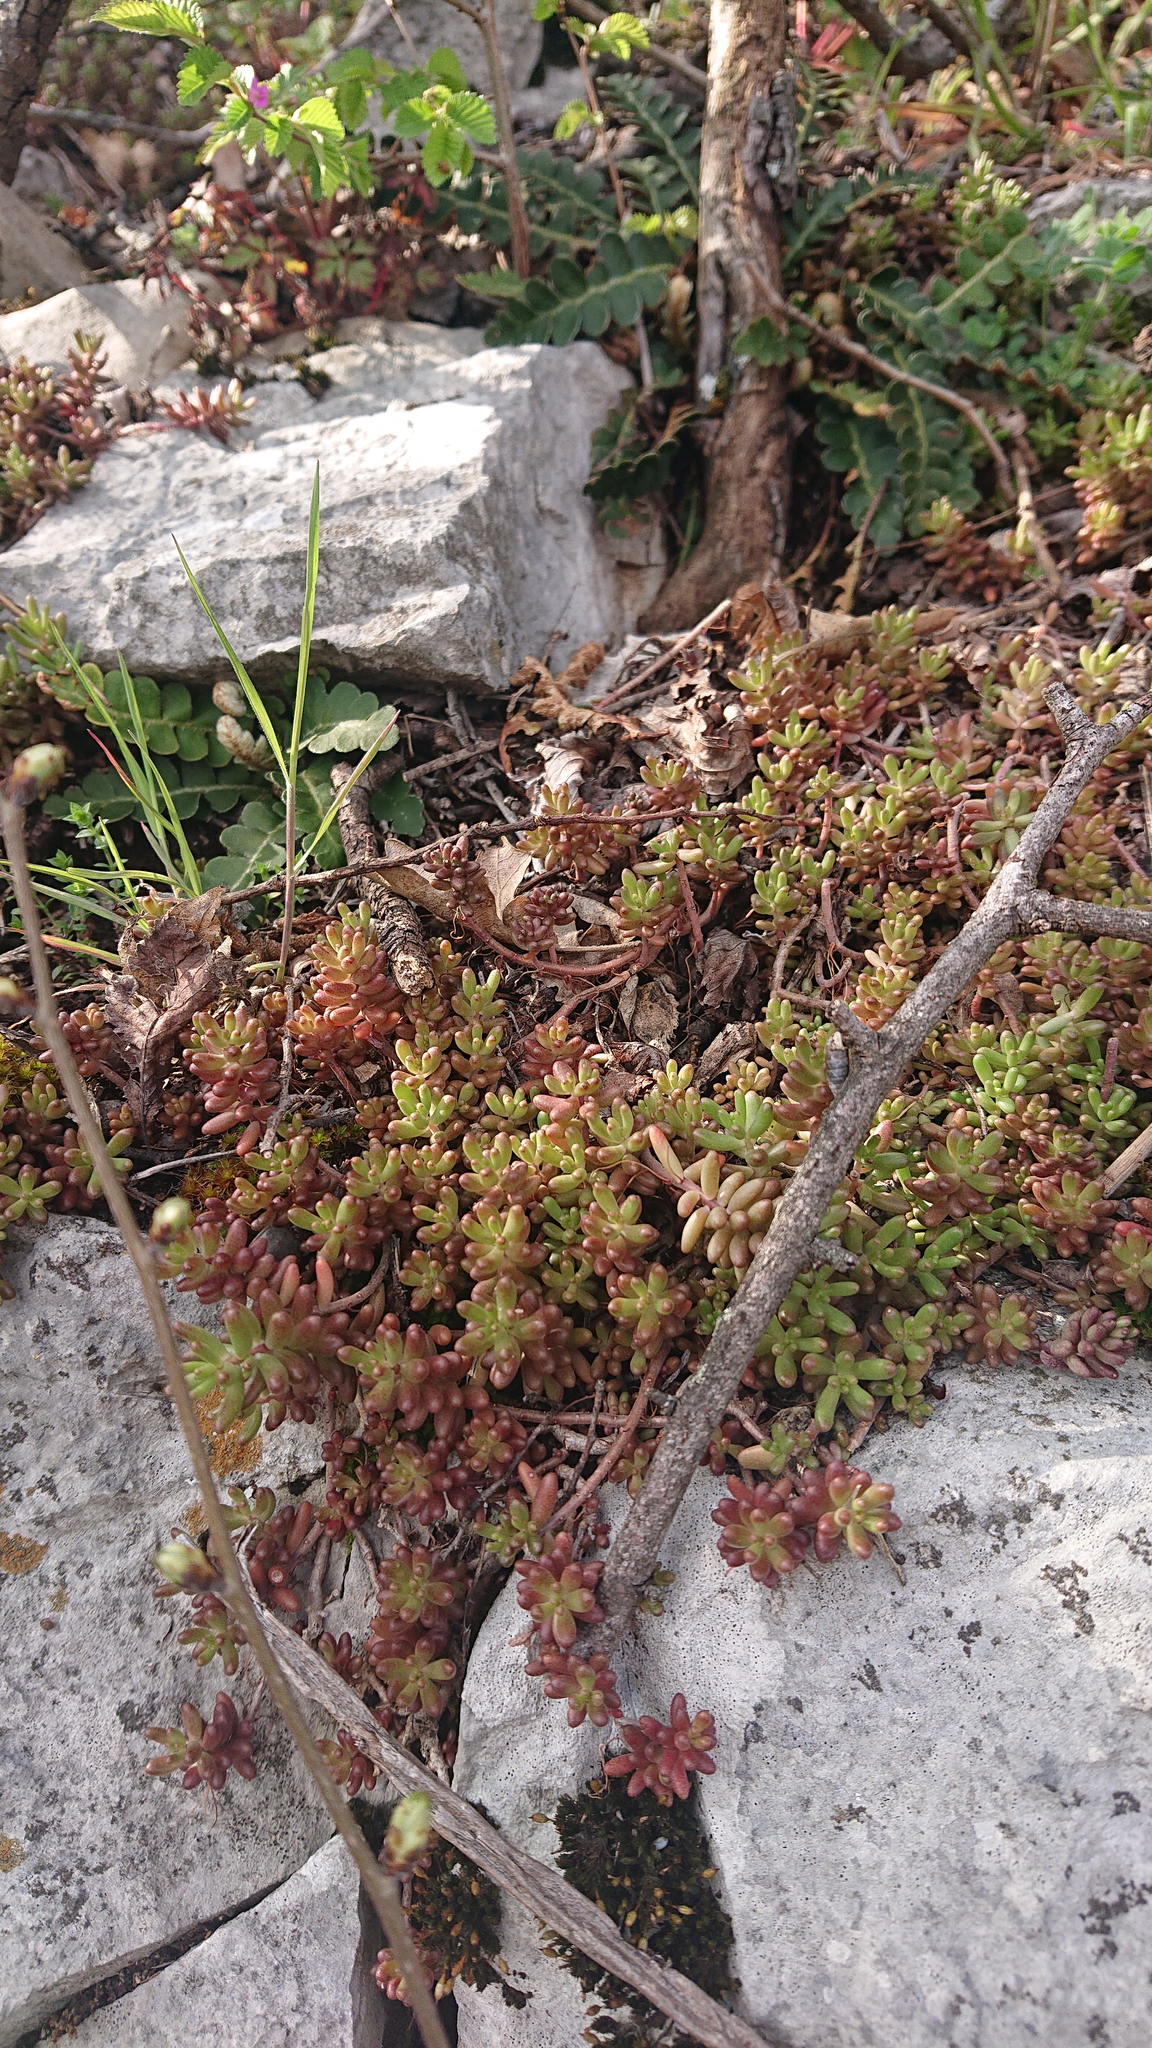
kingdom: Plantae
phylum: Tracheophyta
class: Magnoliopsida
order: Saxifragales
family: Crassulaceae
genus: Sedum
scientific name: Sedum album
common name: White stonecrop
